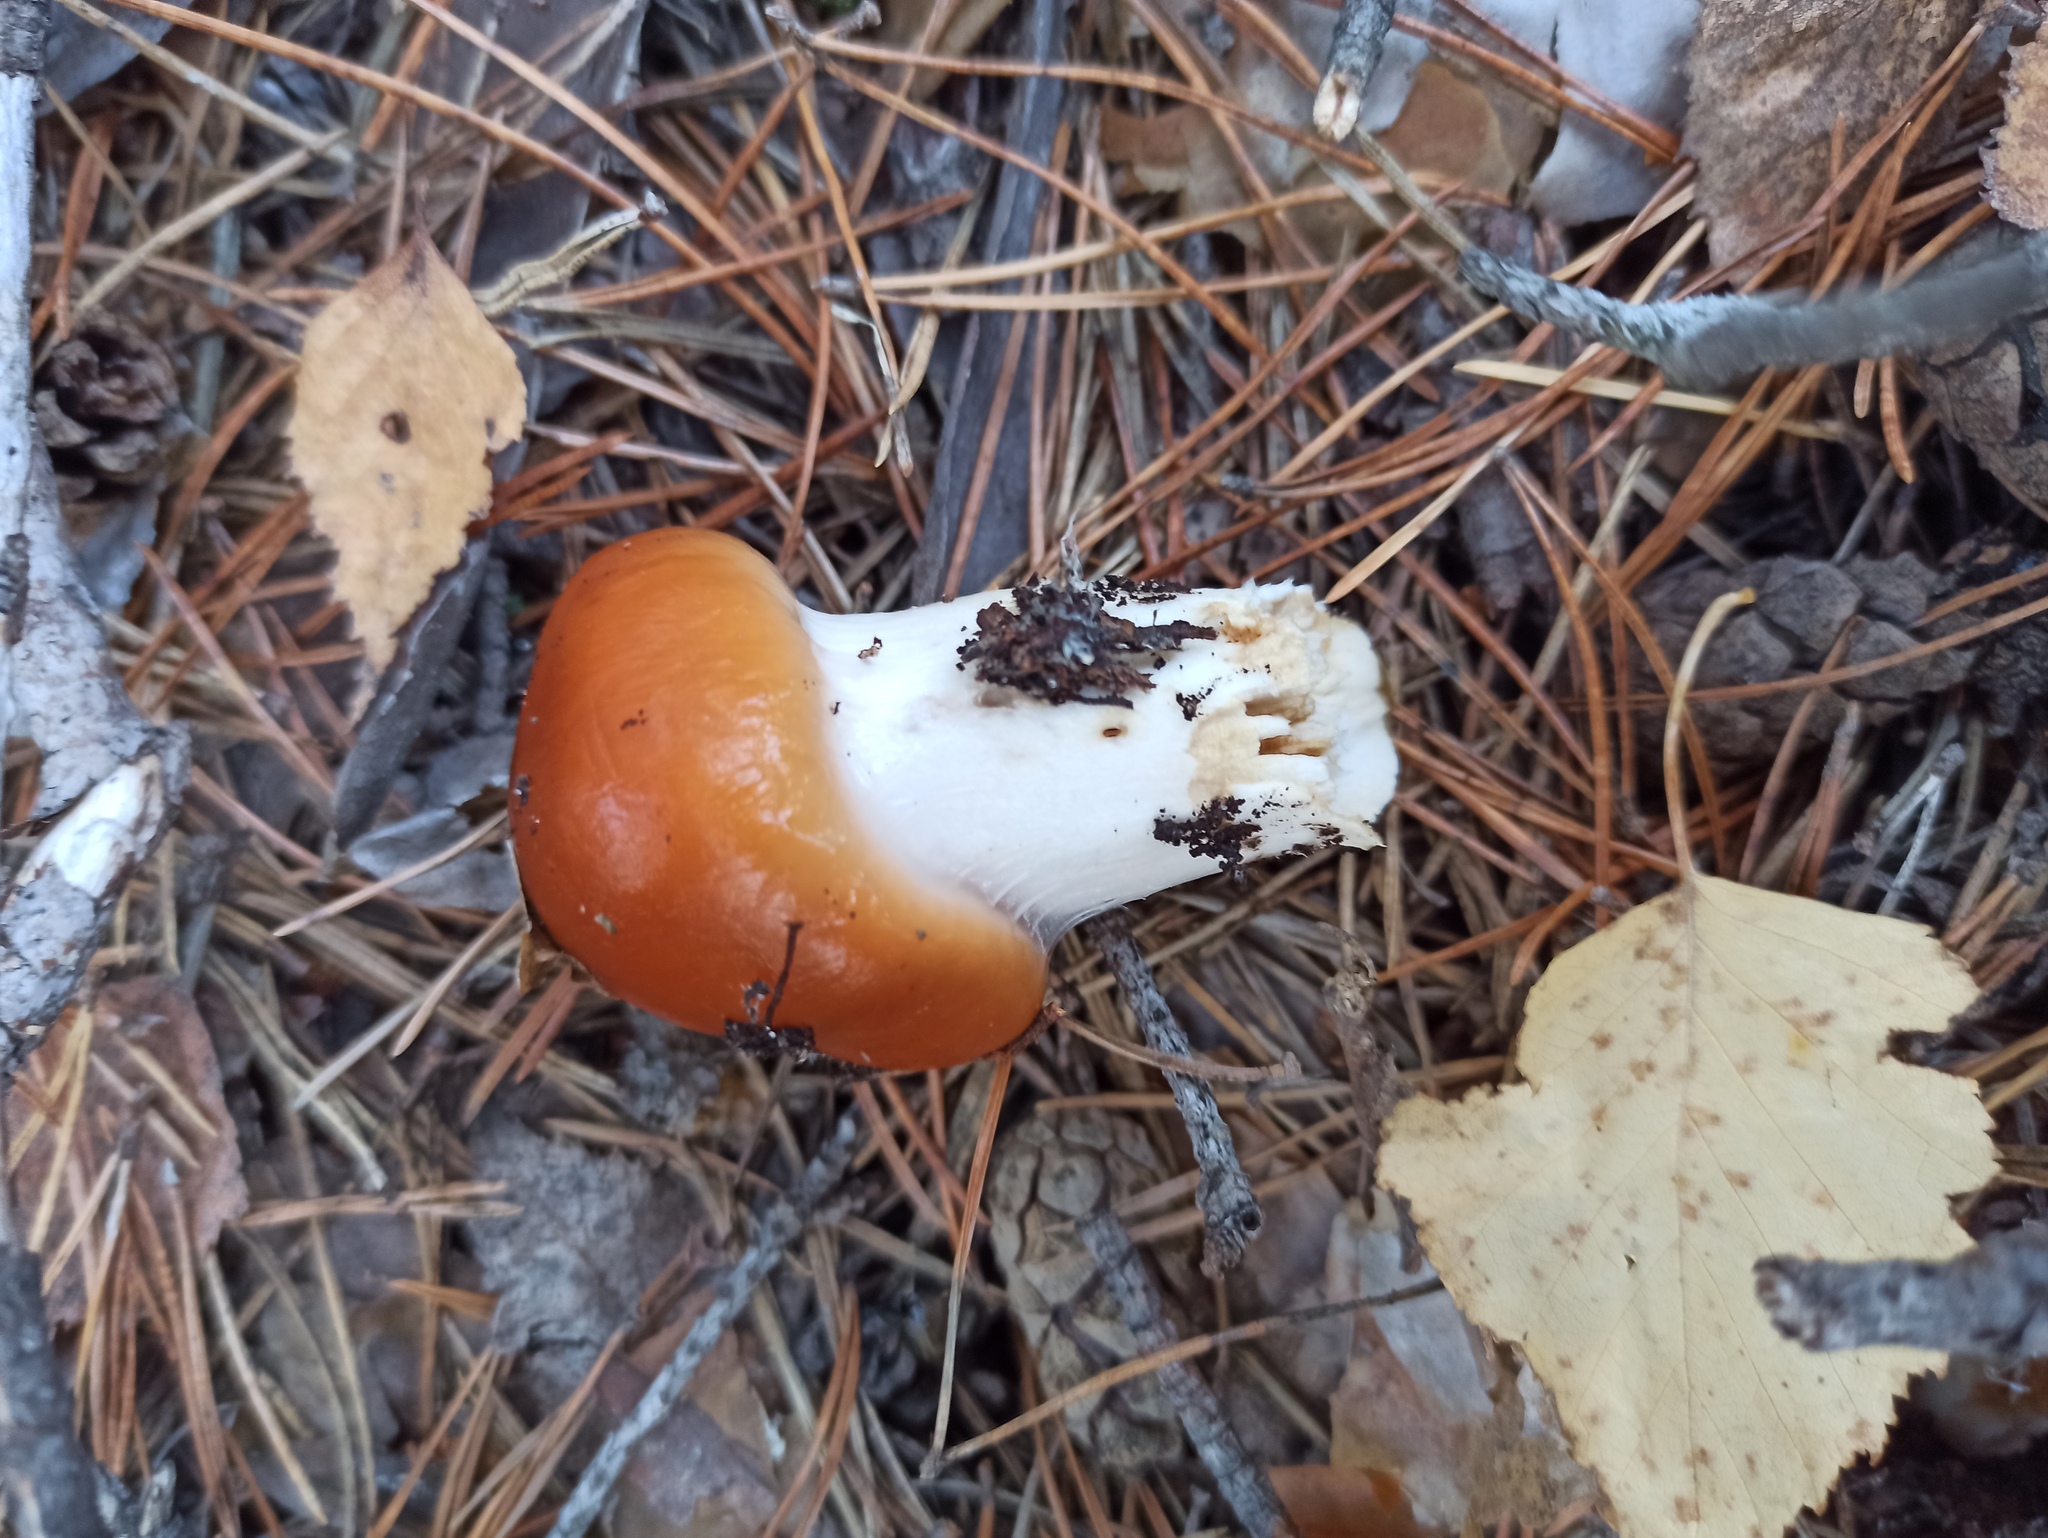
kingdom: Fungi
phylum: Basidiomycota
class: Agaricomycetes
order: Agaricales
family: Cortinariaceae
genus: Cortinarius
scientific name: Cortinarius mucosus
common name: Orange webcap
